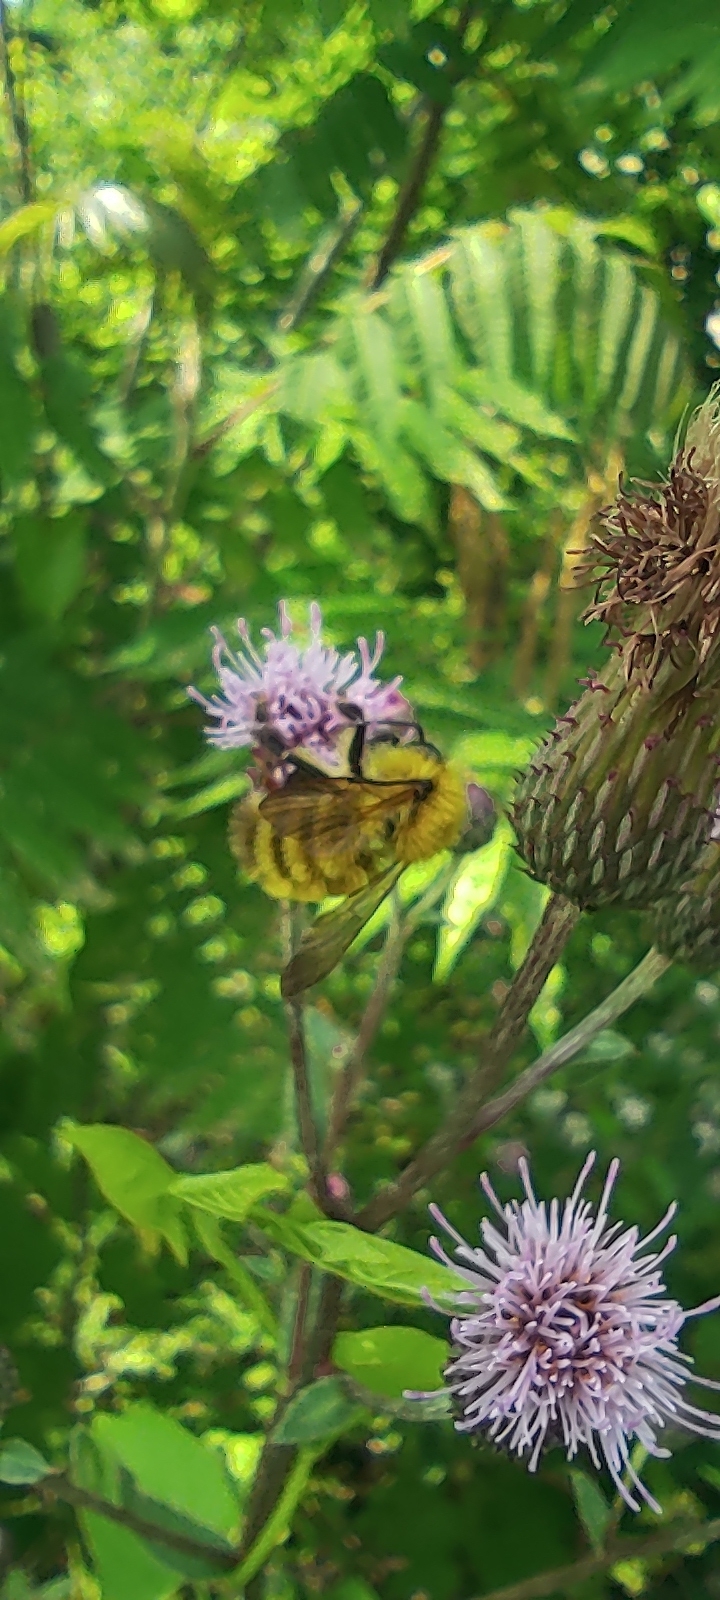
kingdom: Animalia
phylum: Arthropoda
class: Insecta
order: Hymenoptera
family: Apidae
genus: Bombus
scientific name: Bombus perplexus
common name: Confusing bumble bee
